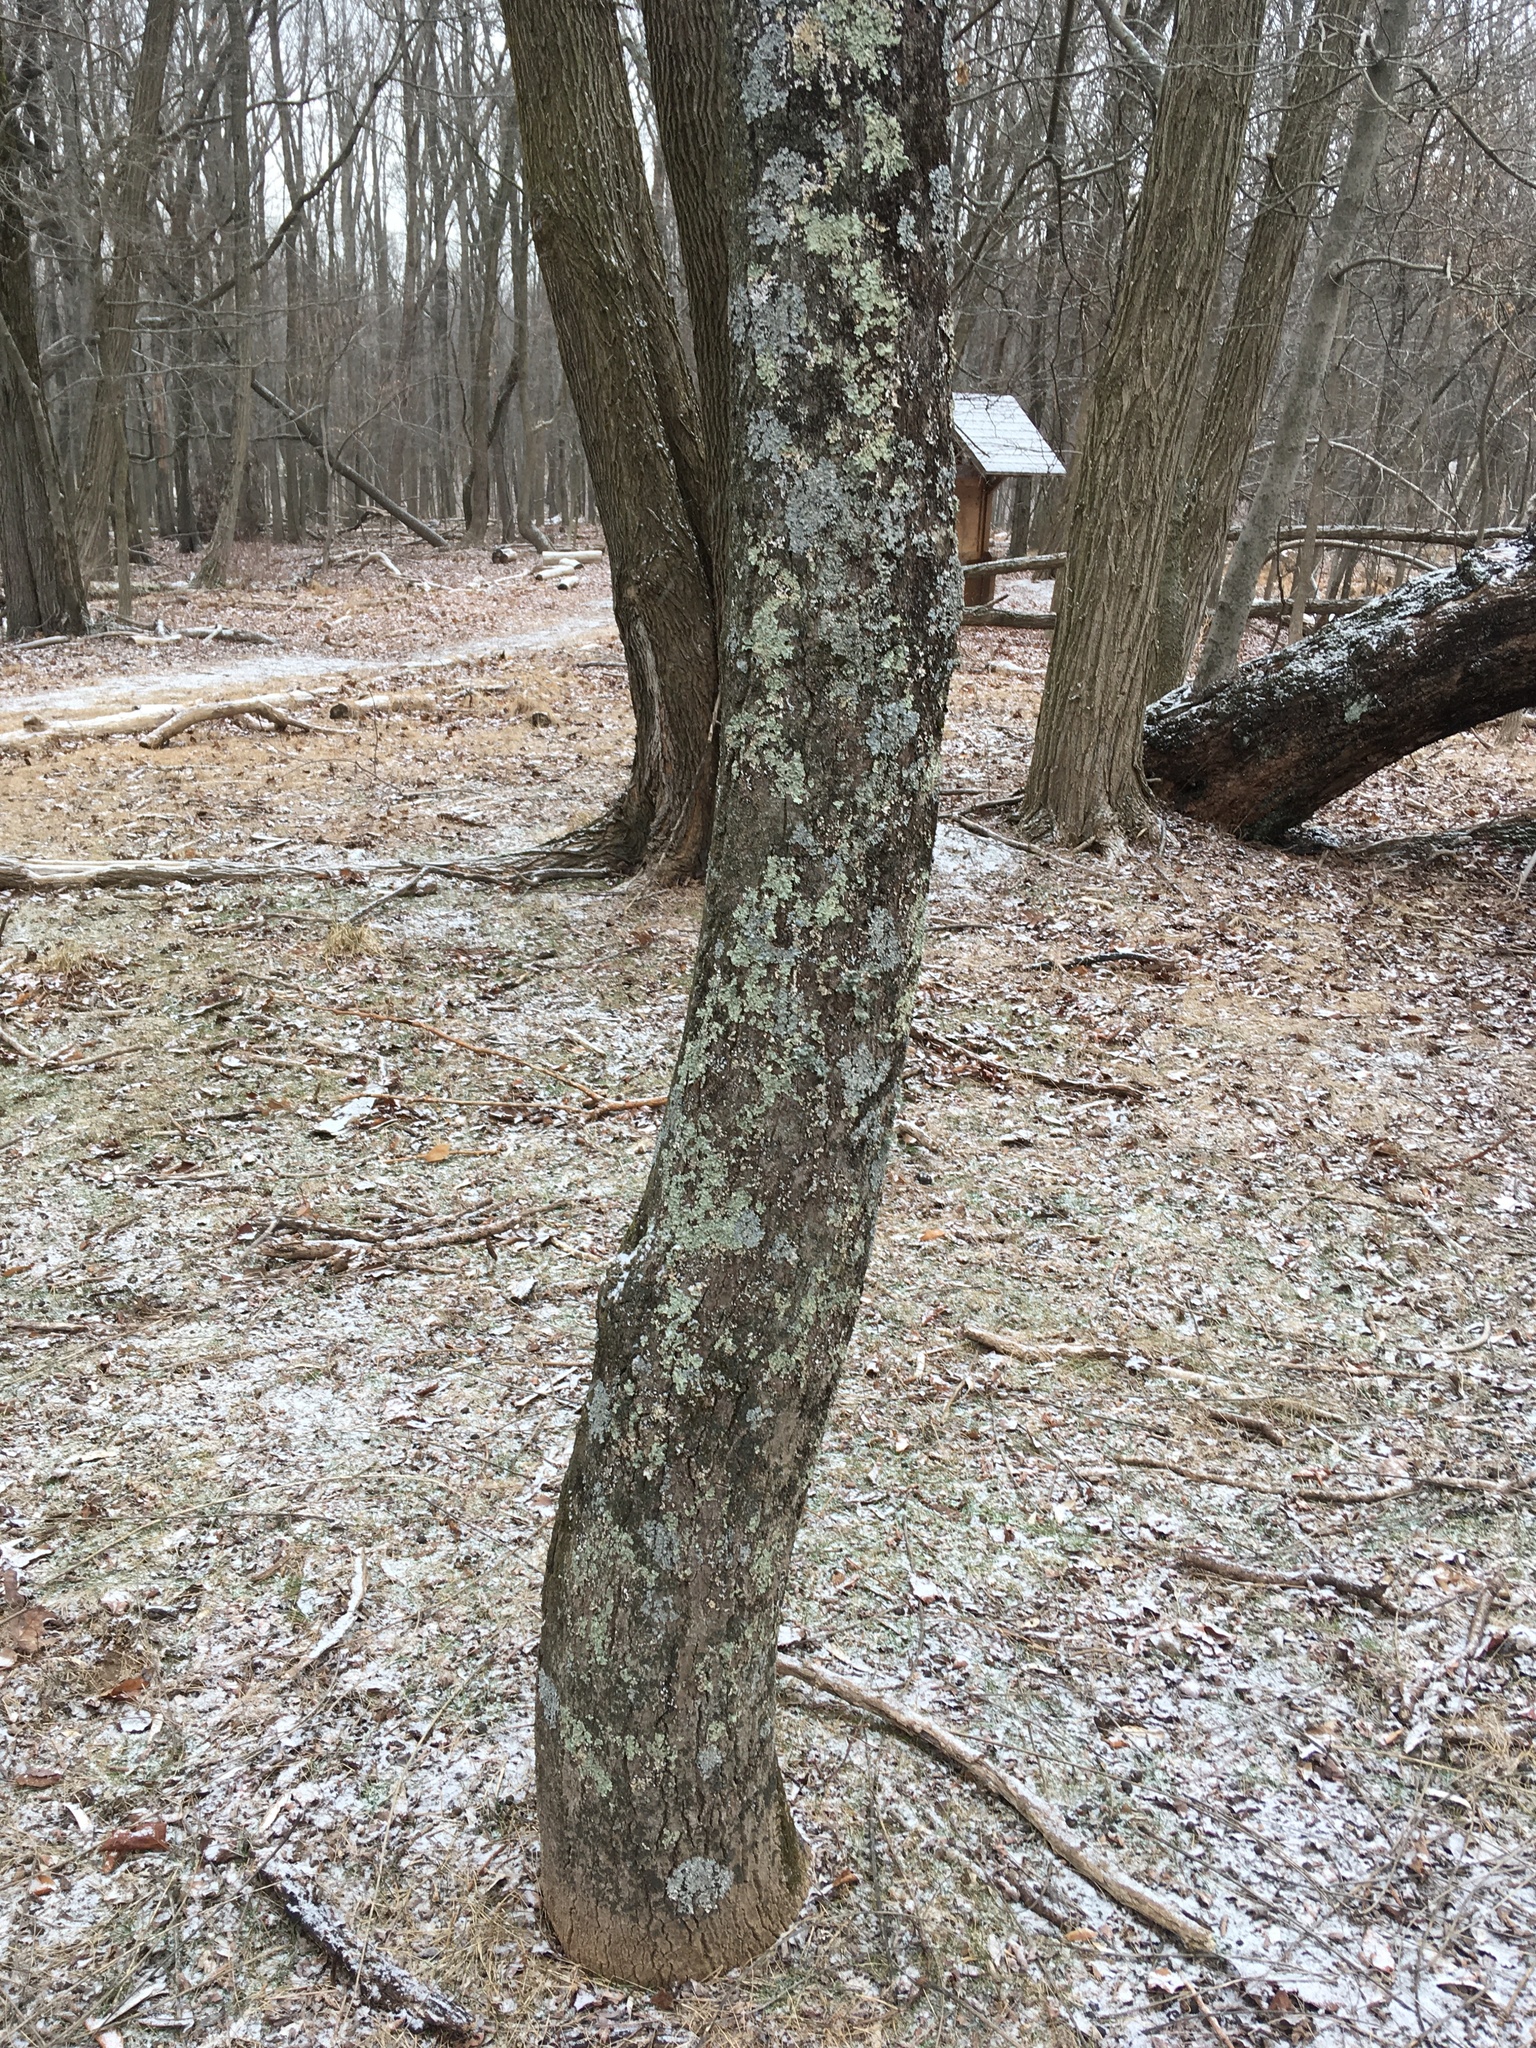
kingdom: Plantae
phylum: Tracheophyta
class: Magnoliopsida
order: Sapindales
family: Simaroubaceae
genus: Ailanthus
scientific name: Ailanthus altissima
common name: Tree-of-heaven
